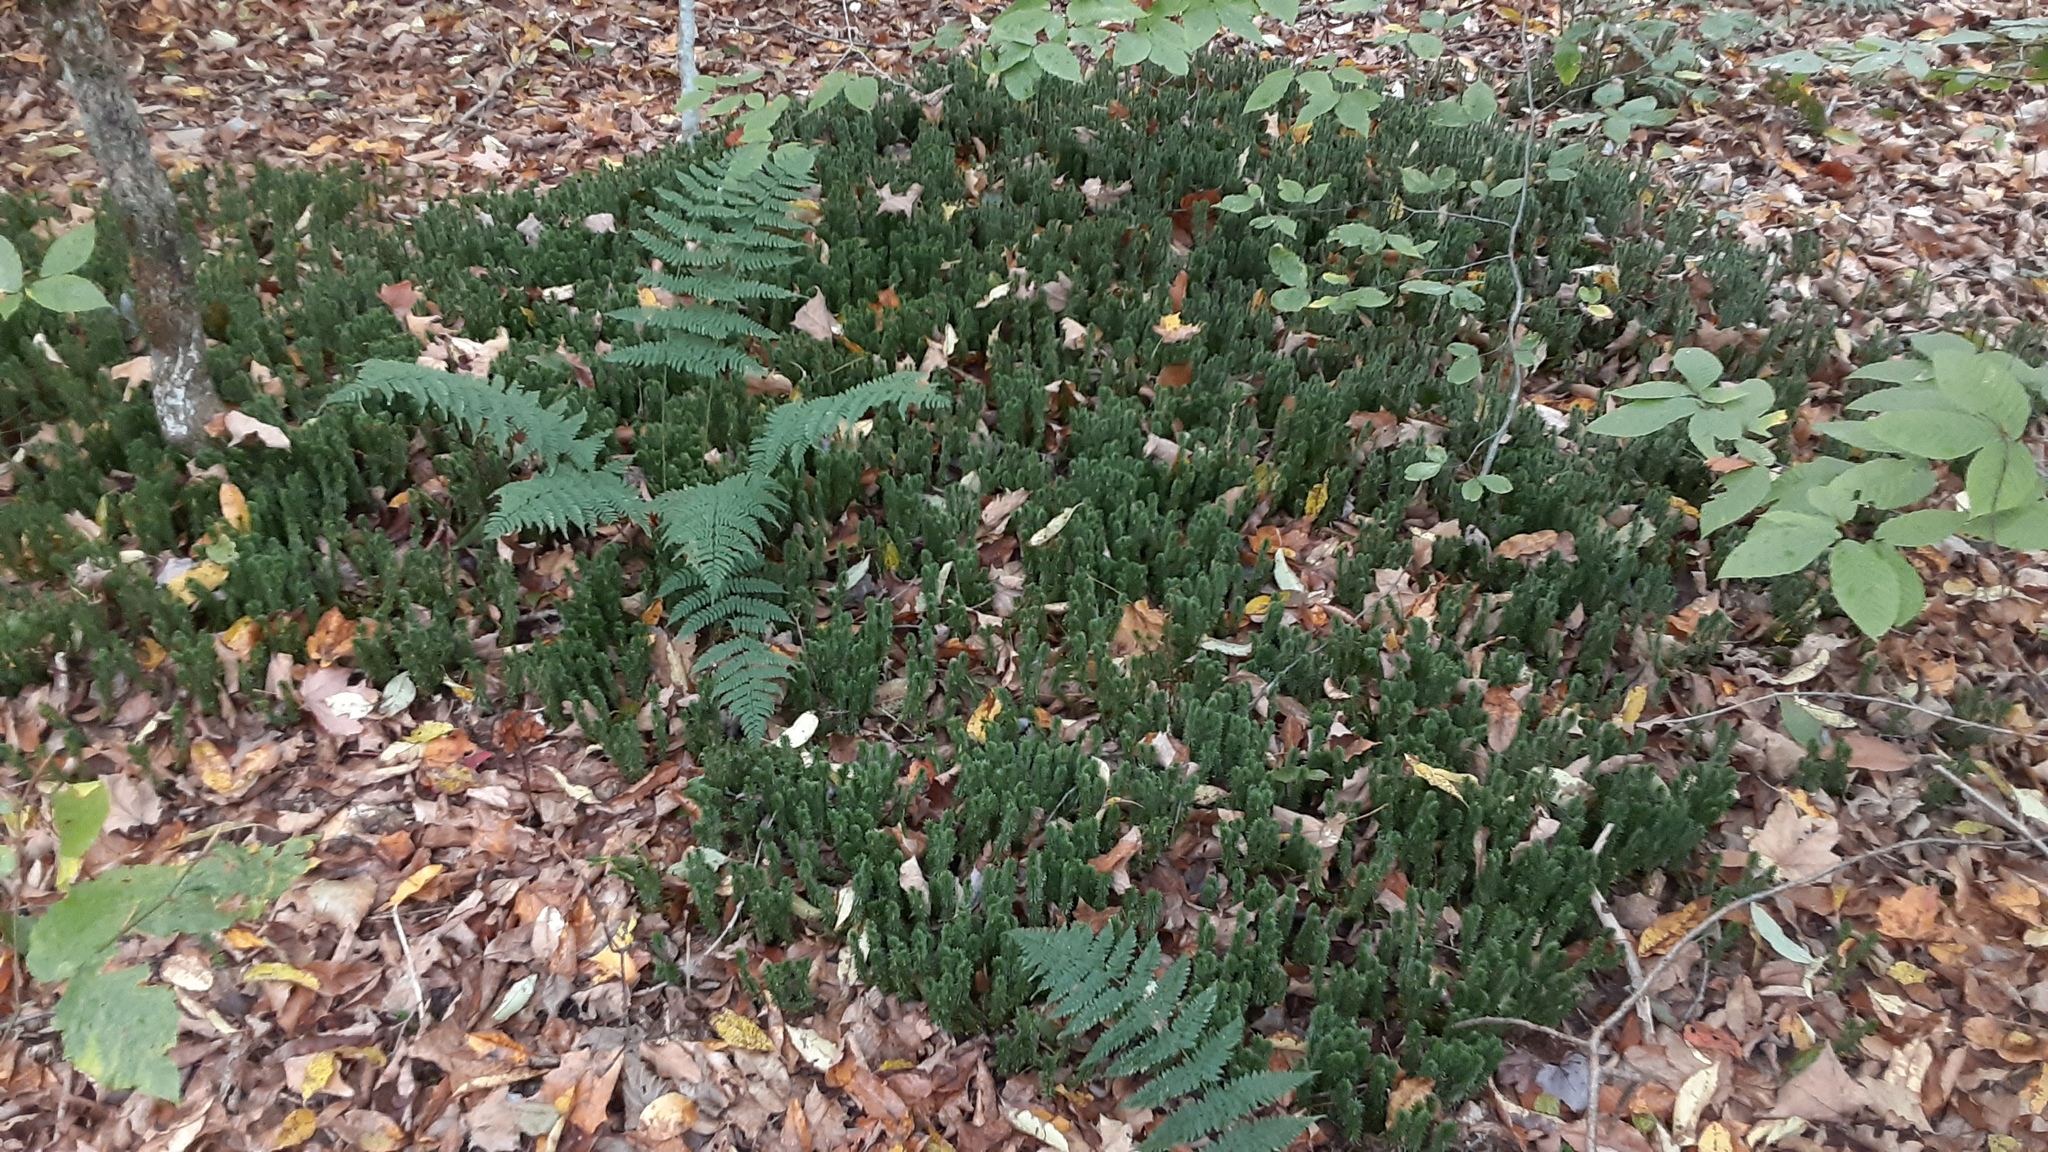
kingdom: Plantae
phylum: Tracheophyta
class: Lycopodiopsida
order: Lycopodiales
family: Lycopodiaceae
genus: Huperzia
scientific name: Huperzia lucidula
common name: Shining clubmoss
